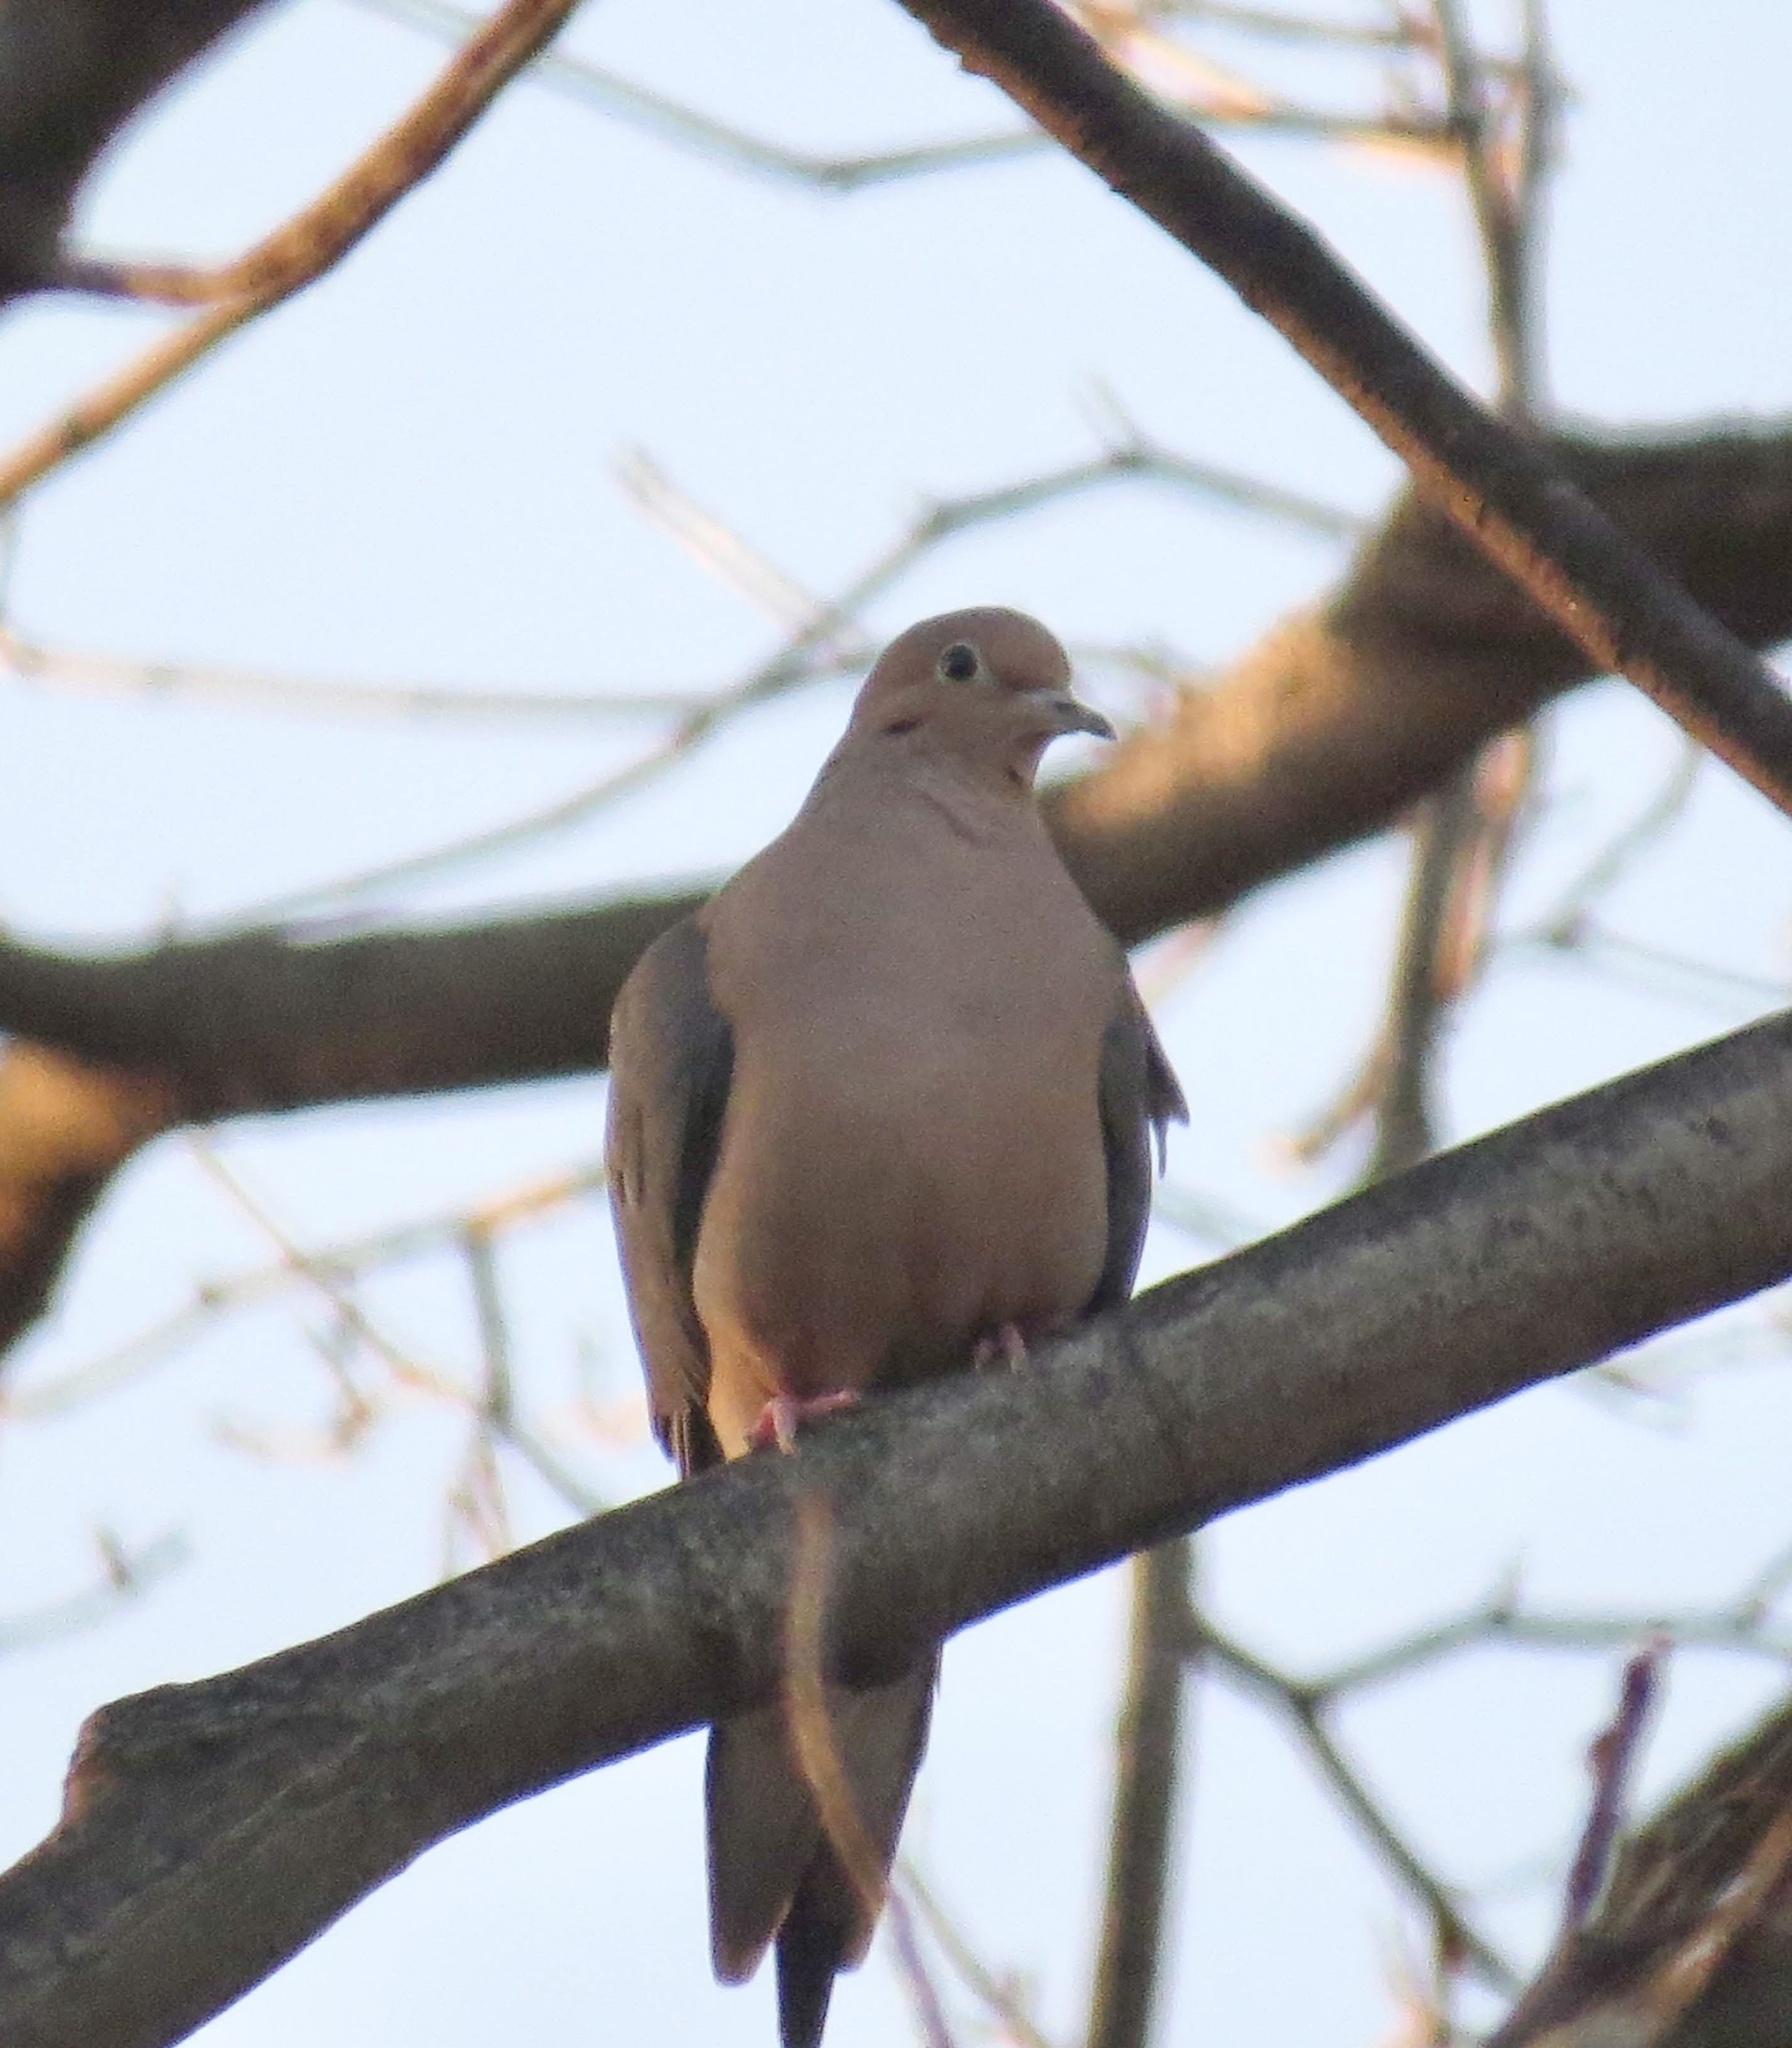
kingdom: Animalia
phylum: Chordata
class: Aves
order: Columbiformes
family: Columbidae
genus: Zenaida
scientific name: Zenaida macroura
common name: Mourning dove
